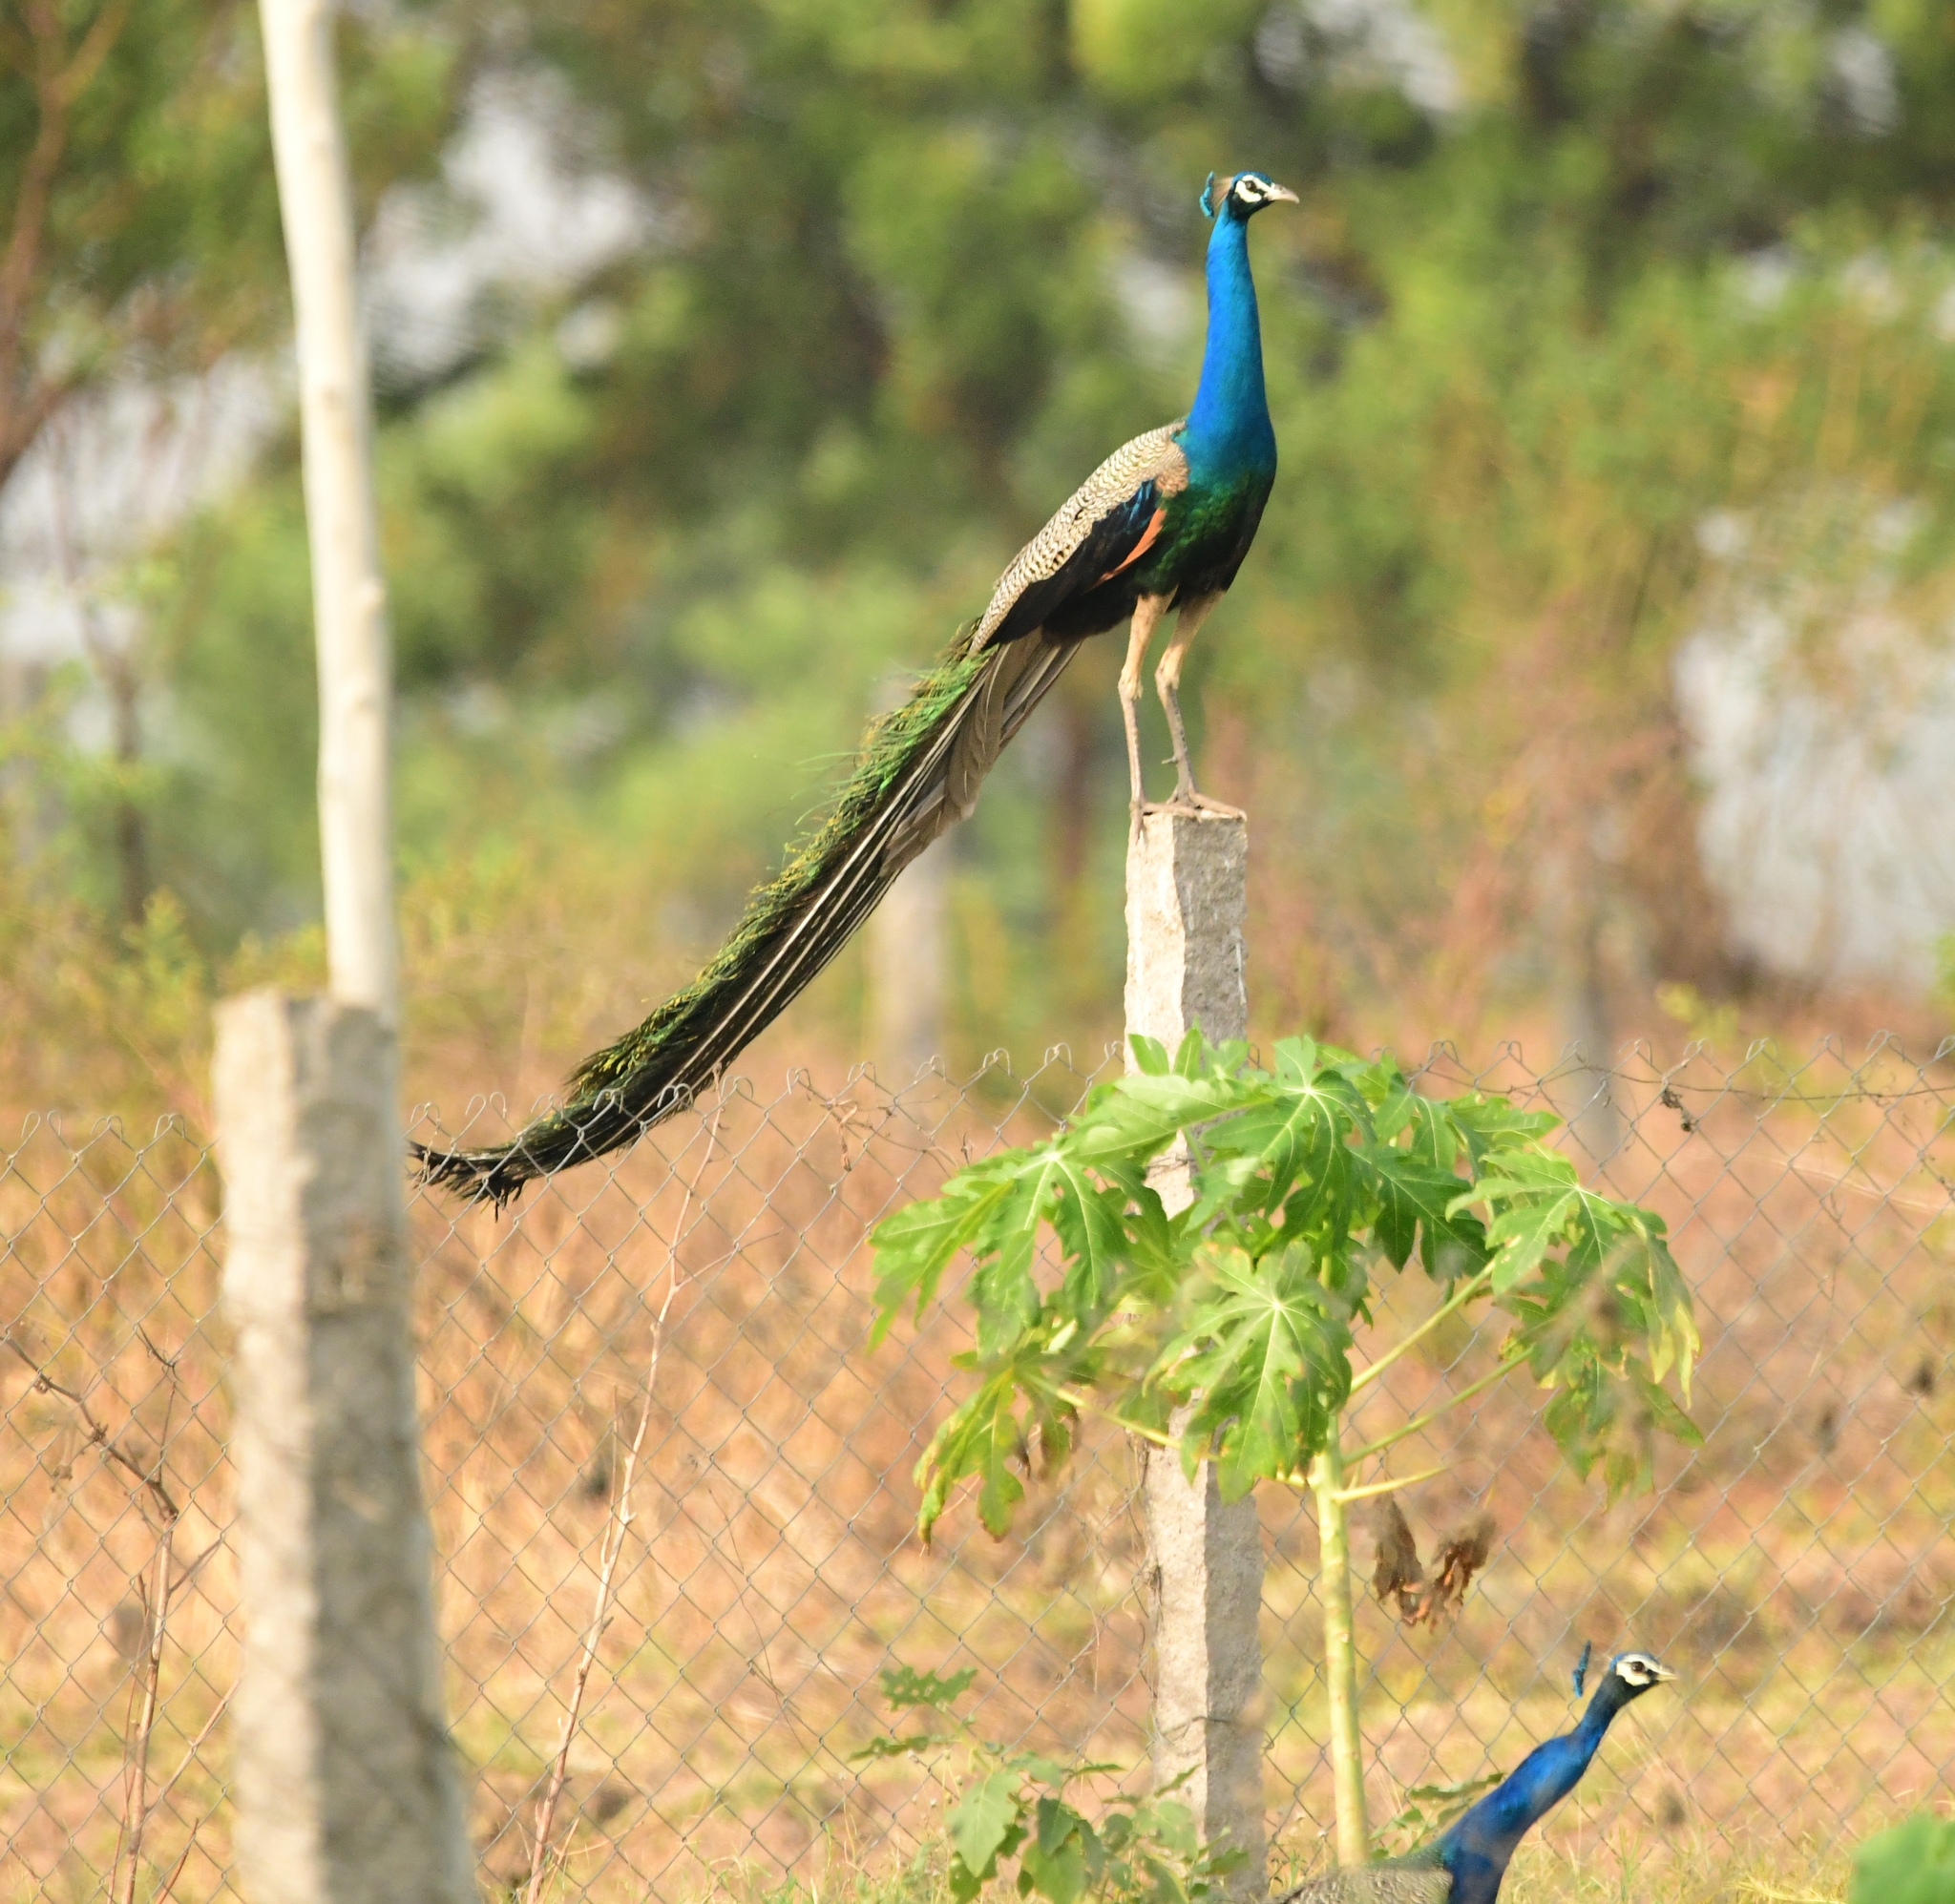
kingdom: Animalia
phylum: Chordata
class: Aves
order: Galliformes
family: Phasianidae
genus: Pavo
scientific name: Pavo cristatus
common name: Indian peafowl
